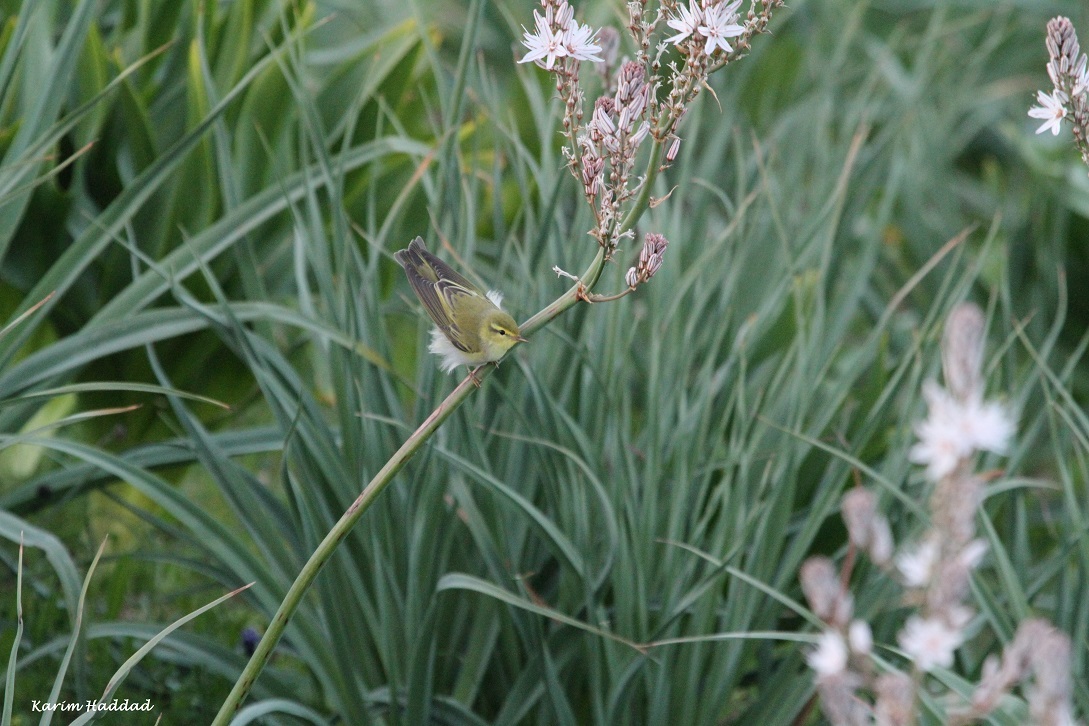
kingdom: Animalia
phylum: Chordata
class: Aves
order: Passeriformes
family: Phylloscopidae
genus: Phylloscopus
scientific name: Phylloscopus sibillatrix
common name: Wood warbler
